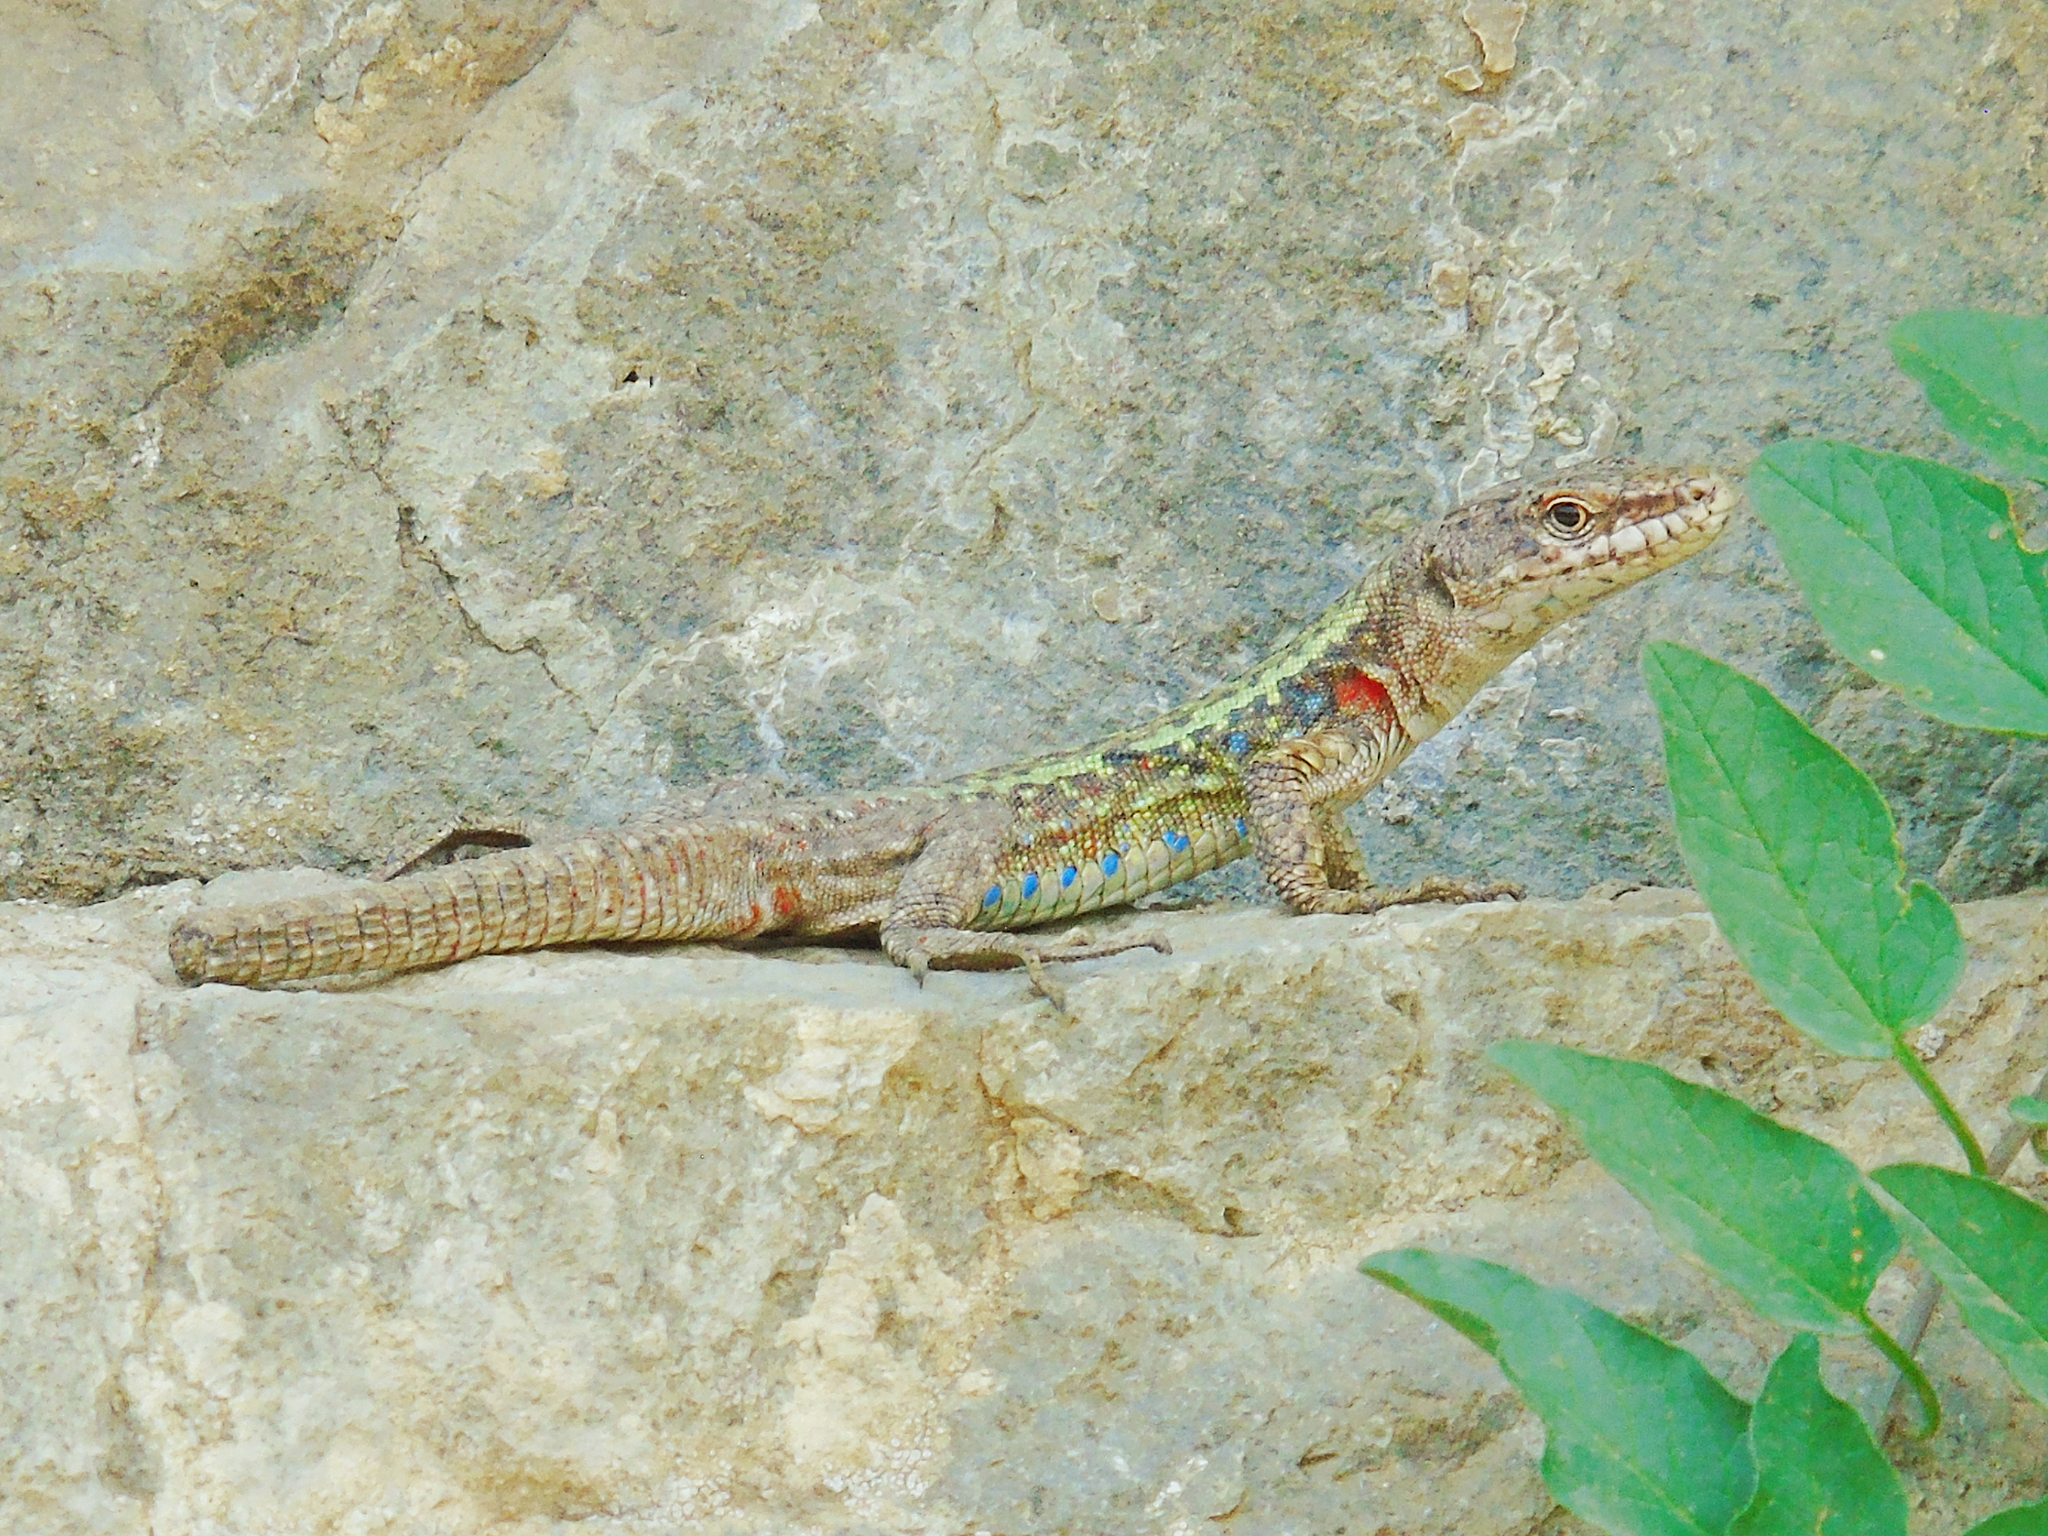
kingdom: Animalia
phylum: Chordata
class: Squamata
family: Lacertidae
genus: Darevskia
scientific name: Darevskia rudis
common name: Spiny-tailed lizard
